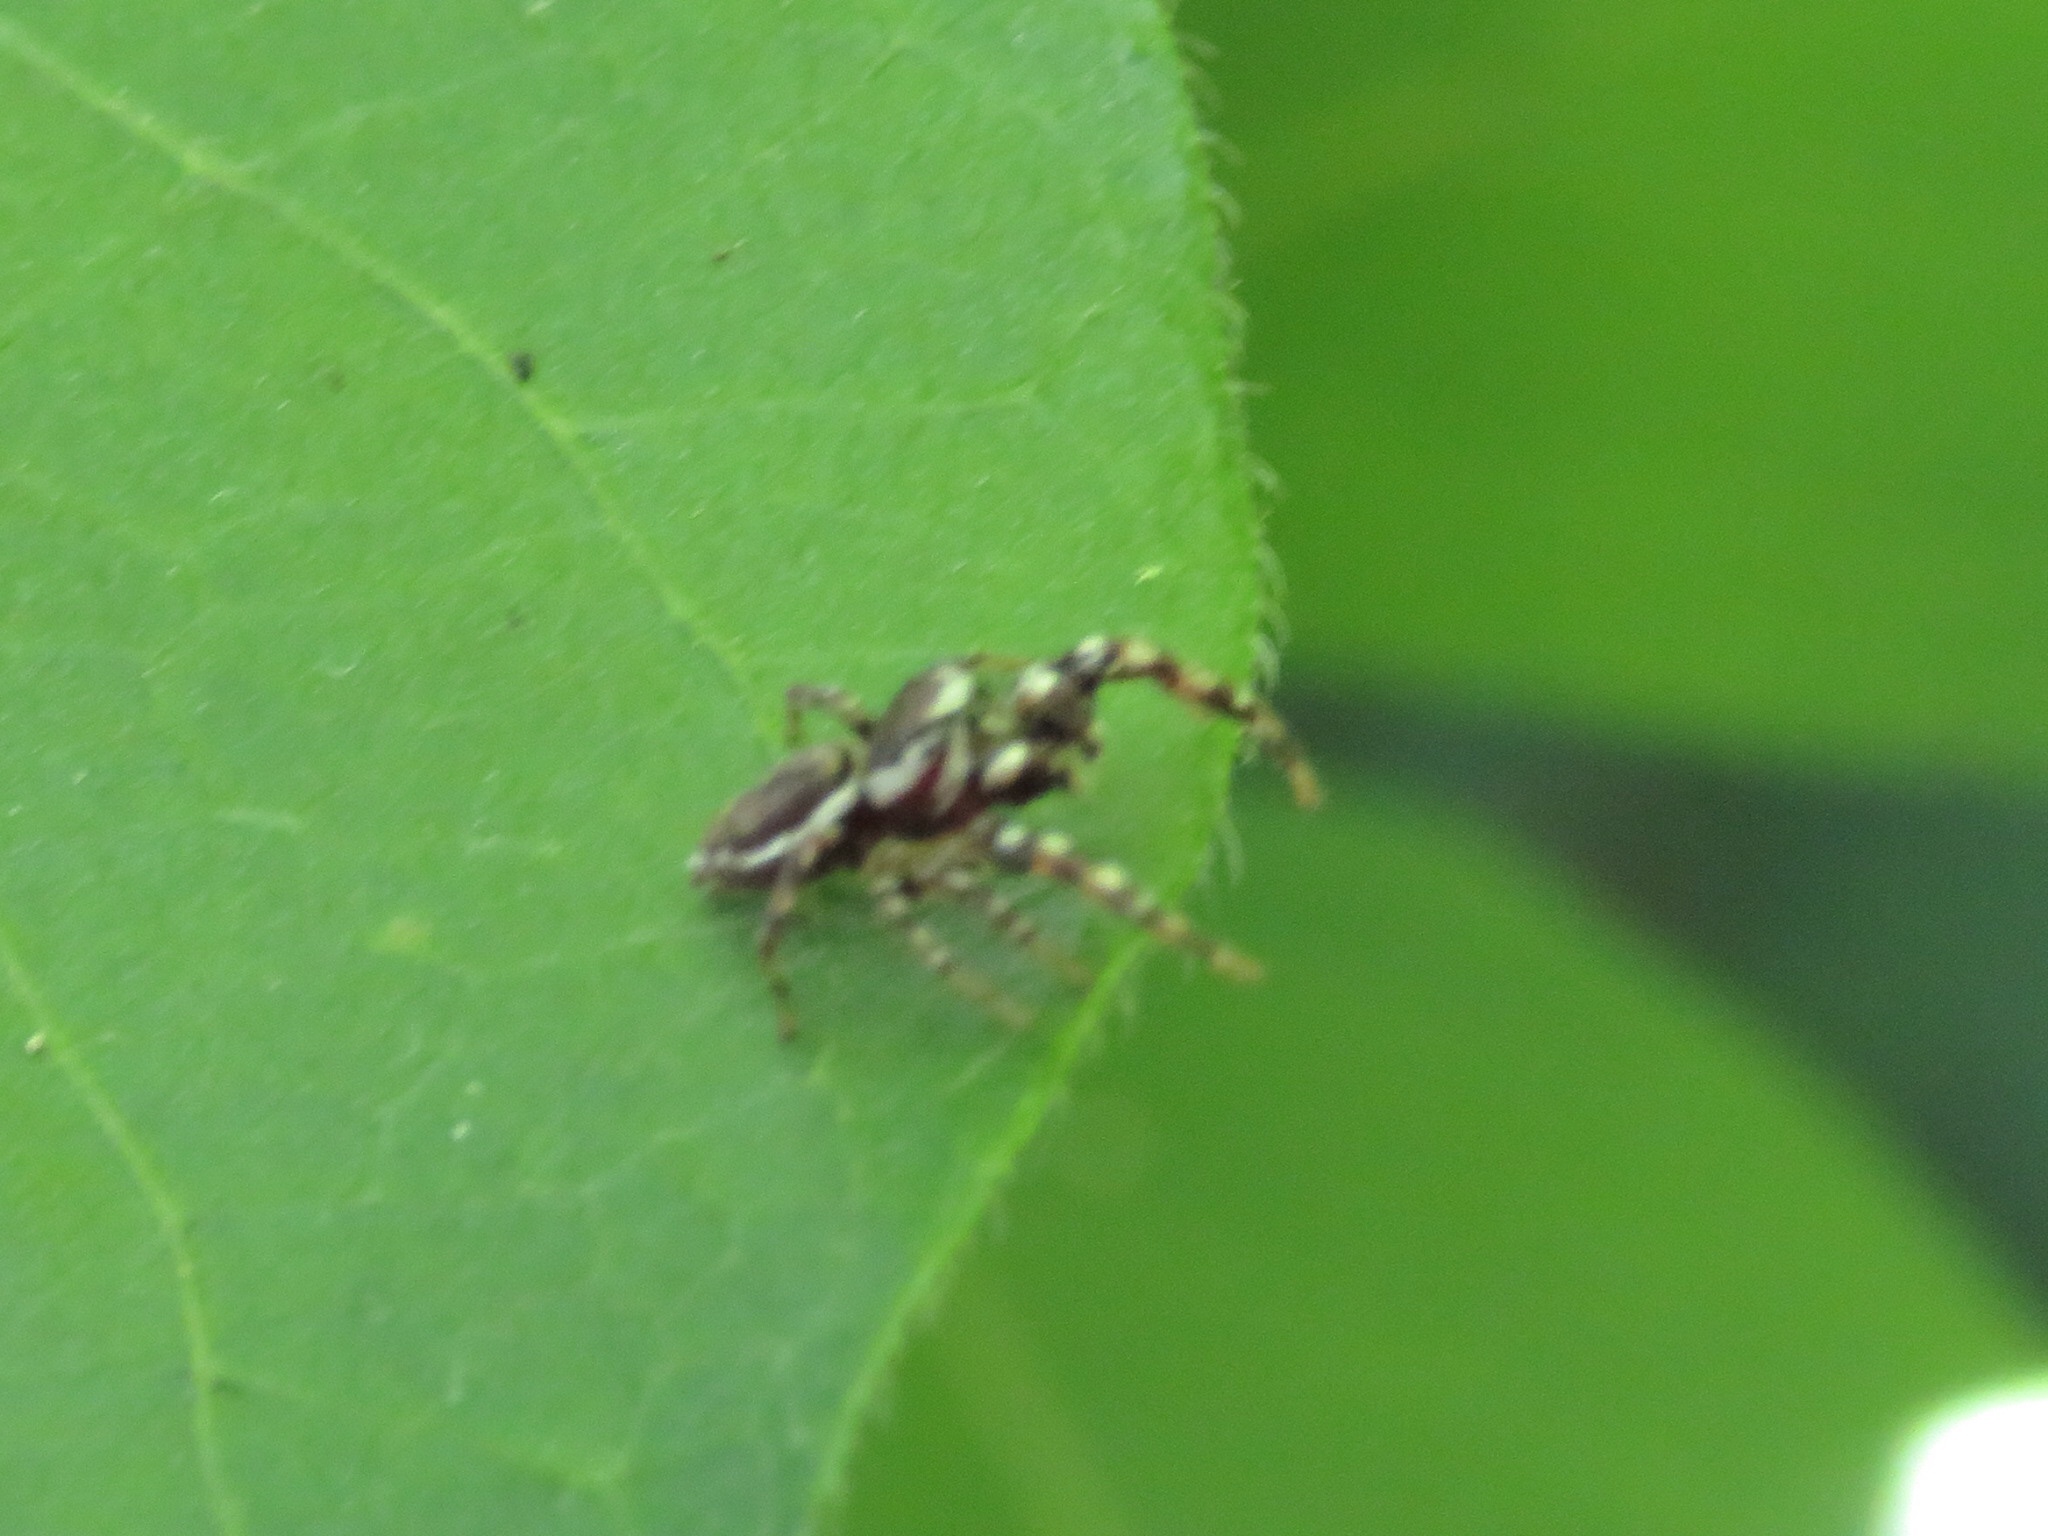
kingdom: Animalia
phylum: Arthropoda
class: Arachnida
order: Araneae
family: Salticidae
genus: Pelegrina
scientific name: Pelegrina proterva
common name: Common white-cheeked jumping spider
